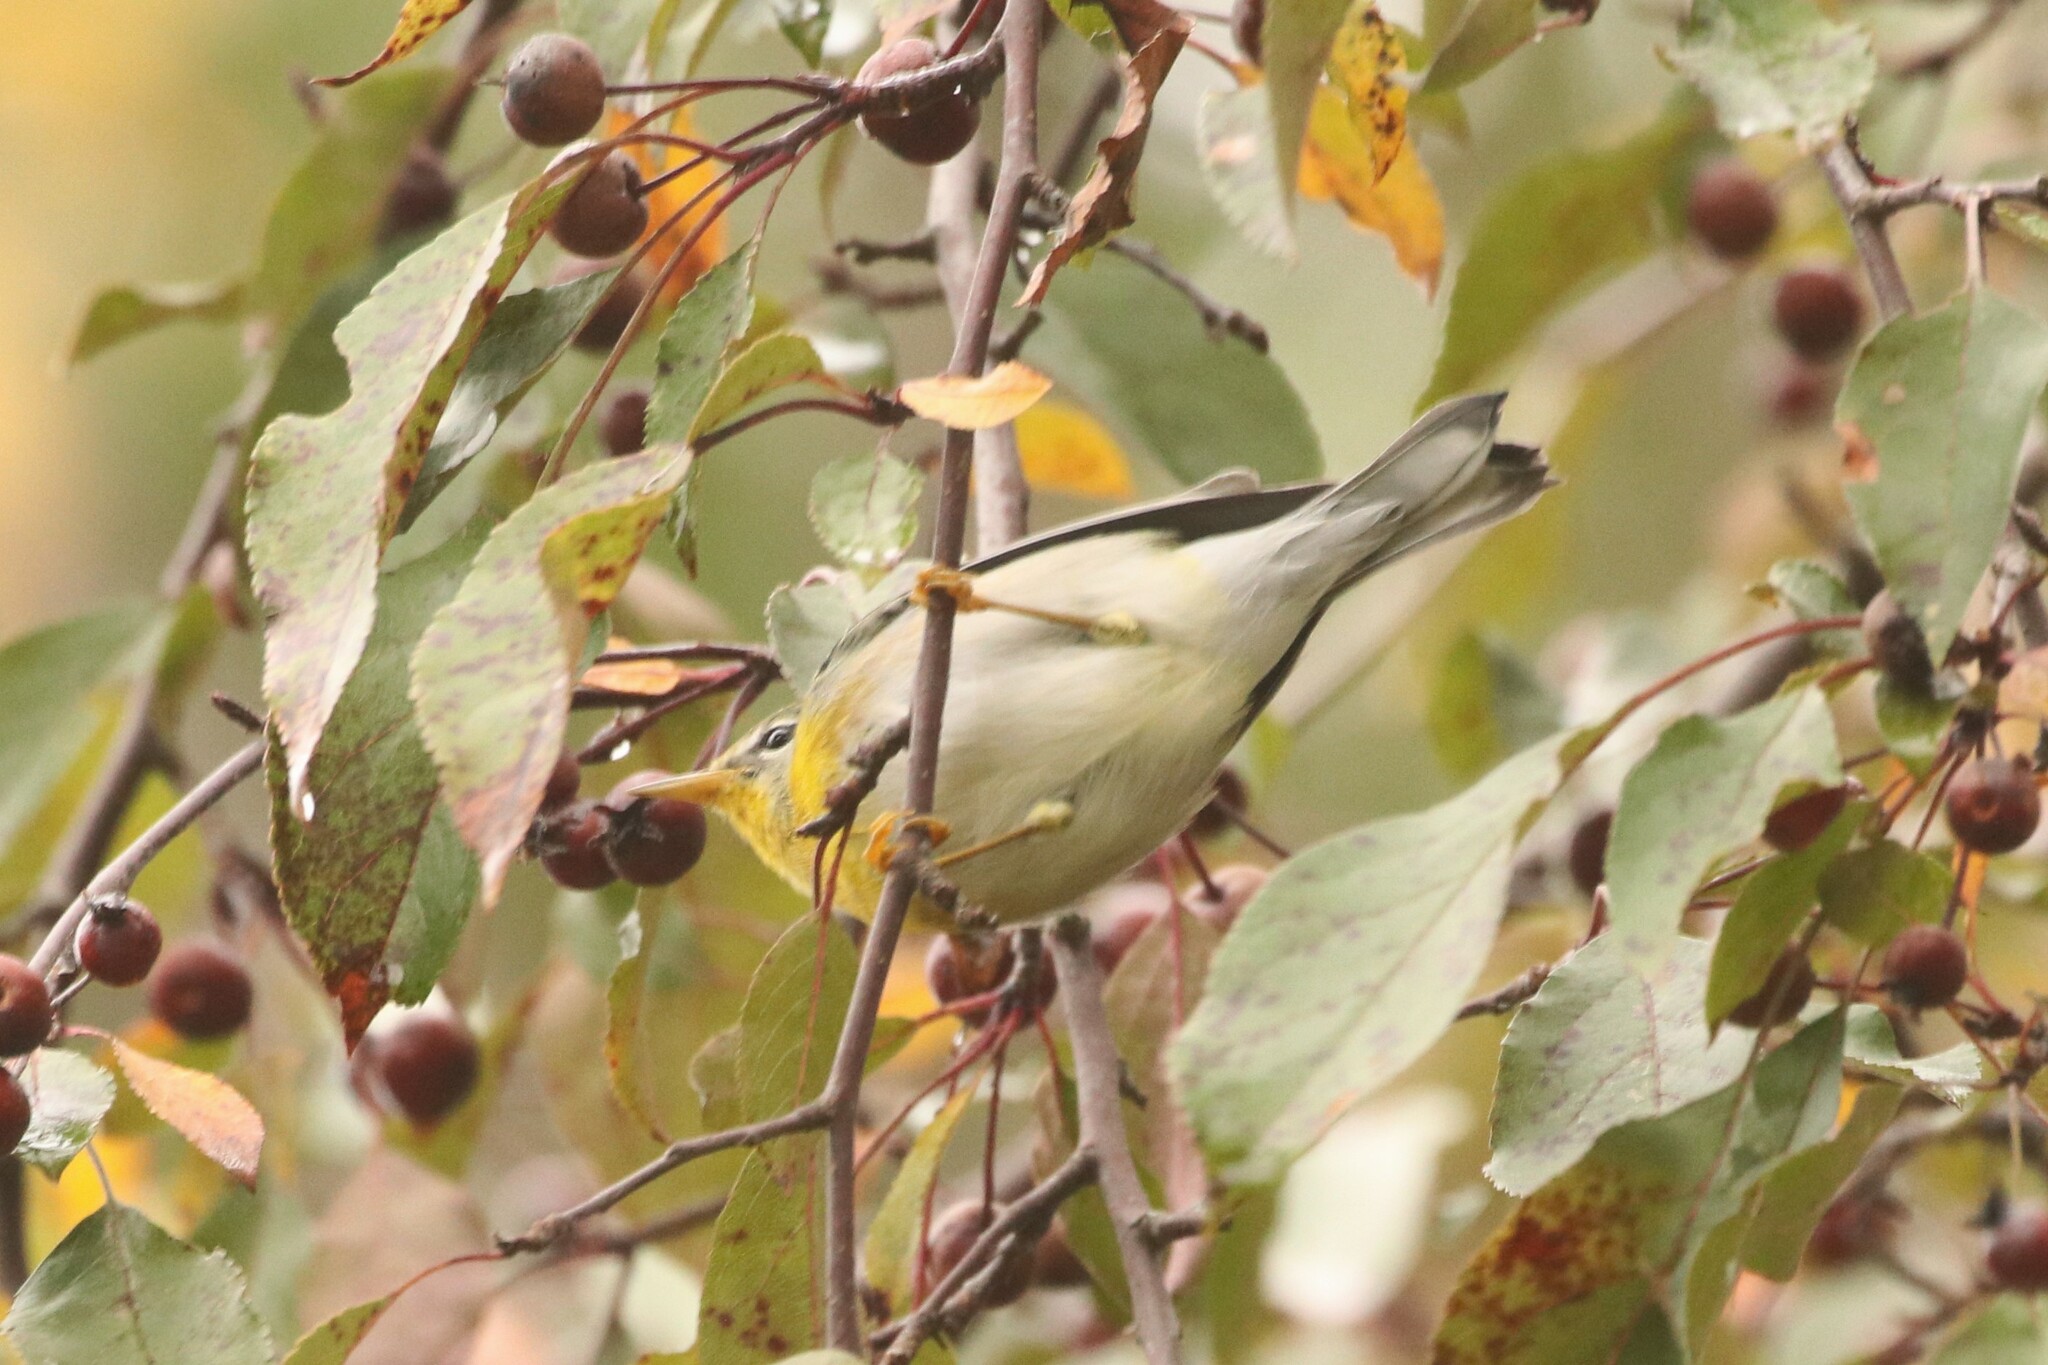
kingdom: Animalia
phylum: Chordata
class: Aves
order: Passeriformes
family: Parulidae
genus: Setophaga
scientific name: Setophaga americana
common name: Northern parula
